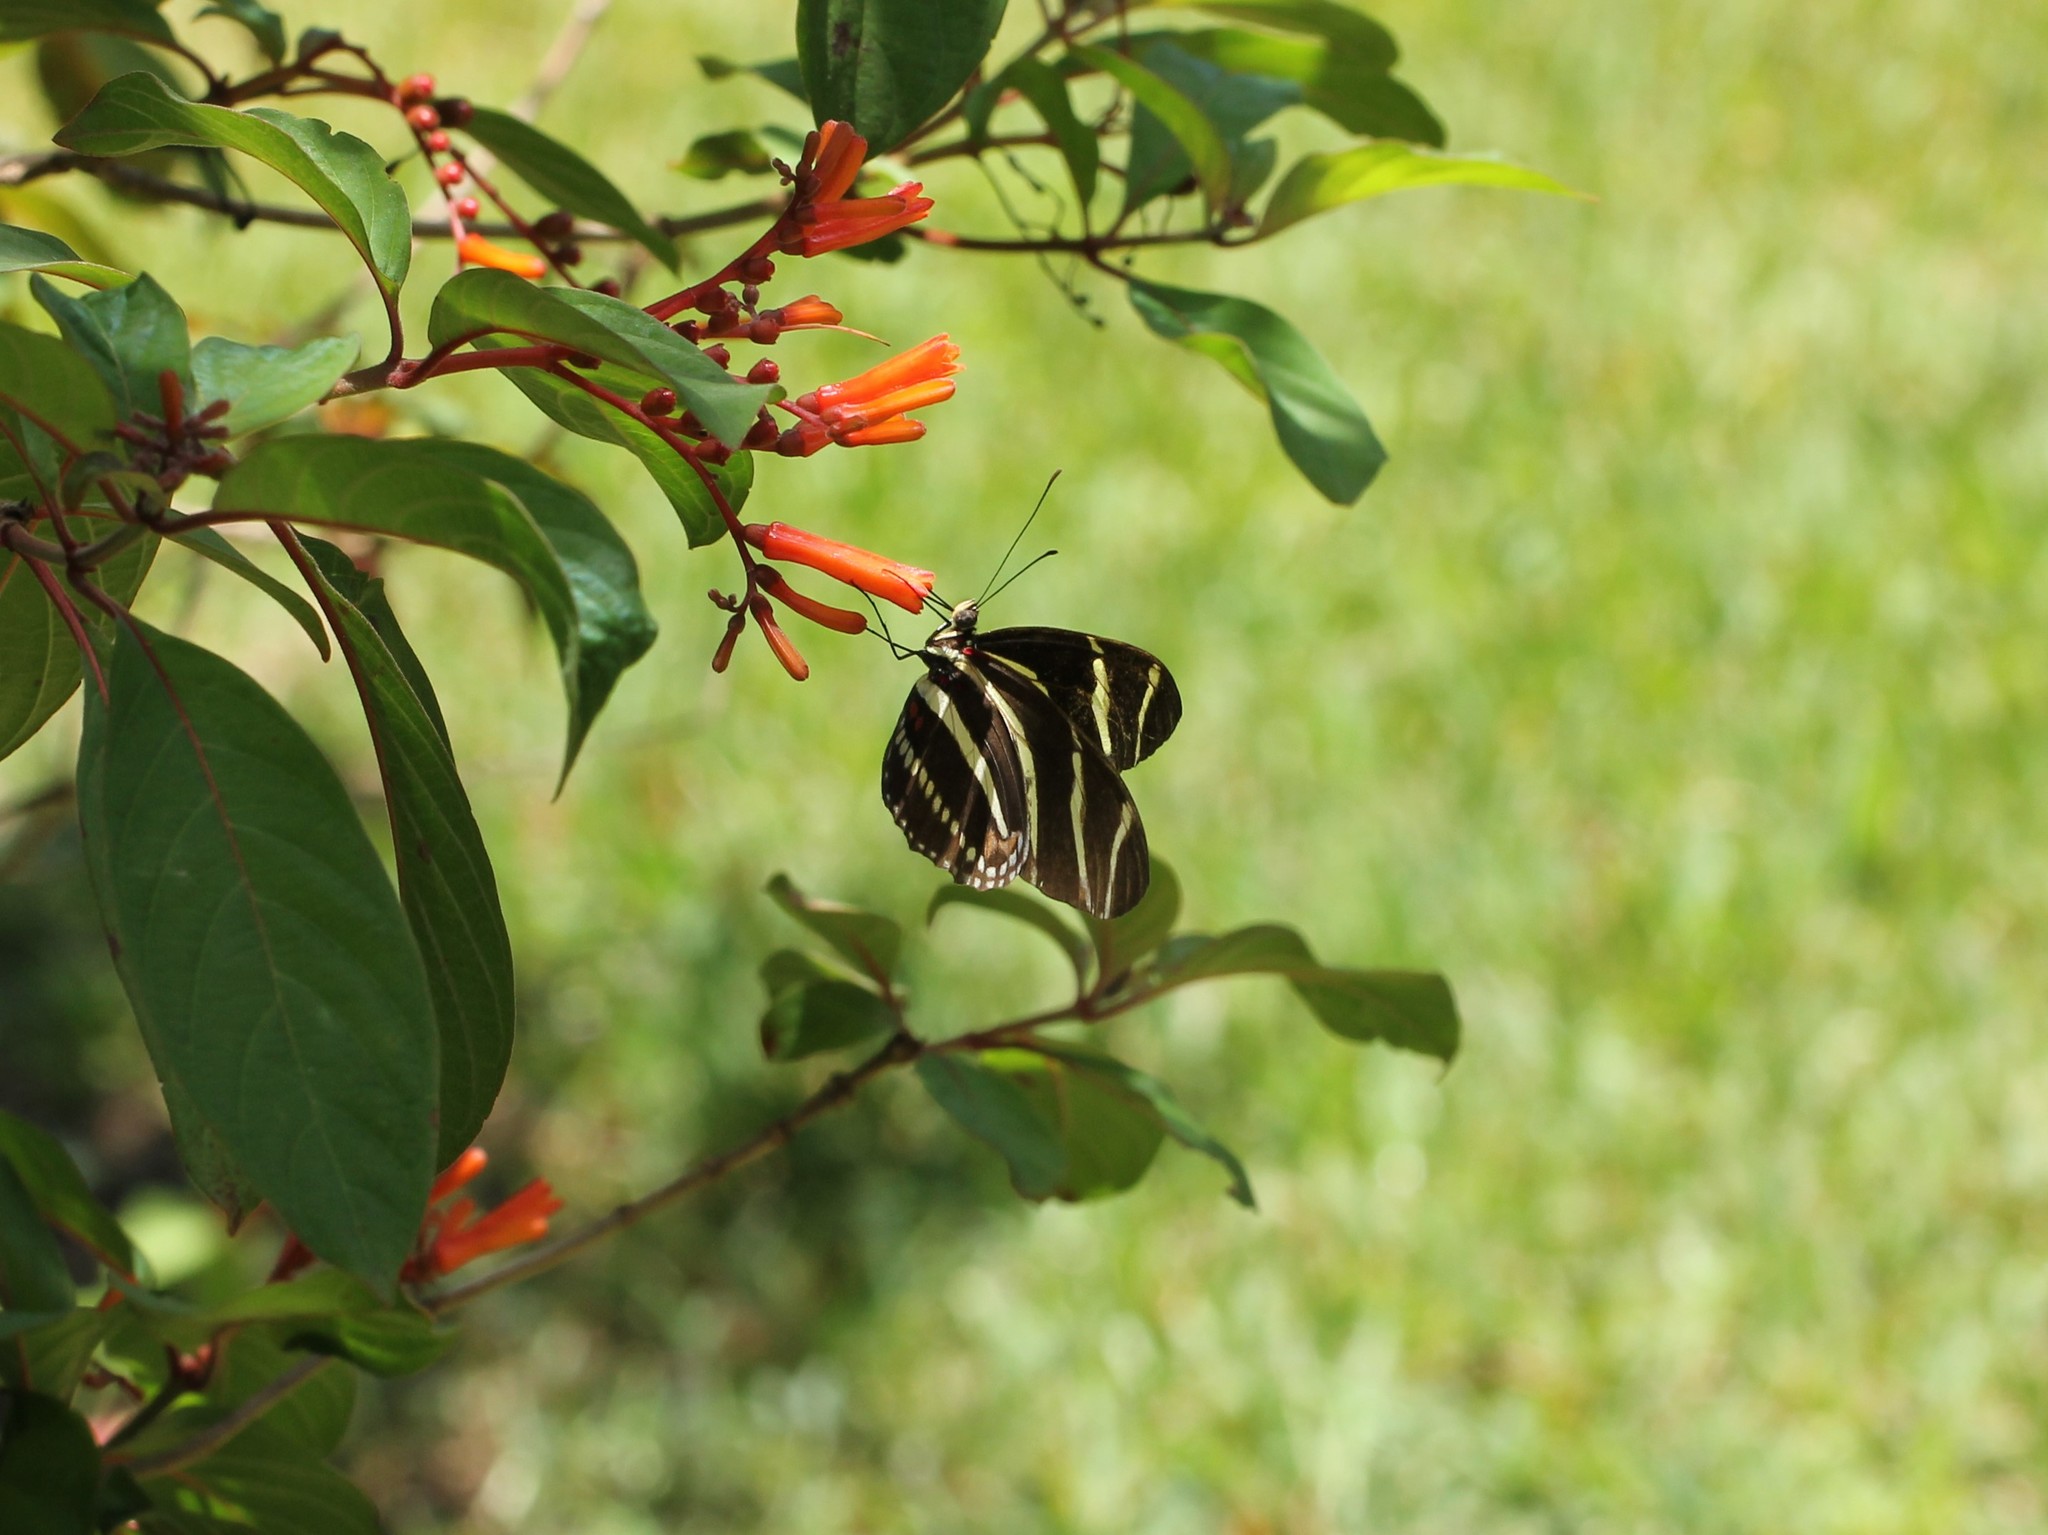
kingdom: Animalia
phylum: Arthropoda
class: Insecta
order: Lepidoptera
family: Nymphalidae
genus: Heliconius
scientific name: Heliconius charithonia
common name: Zebra long wing
